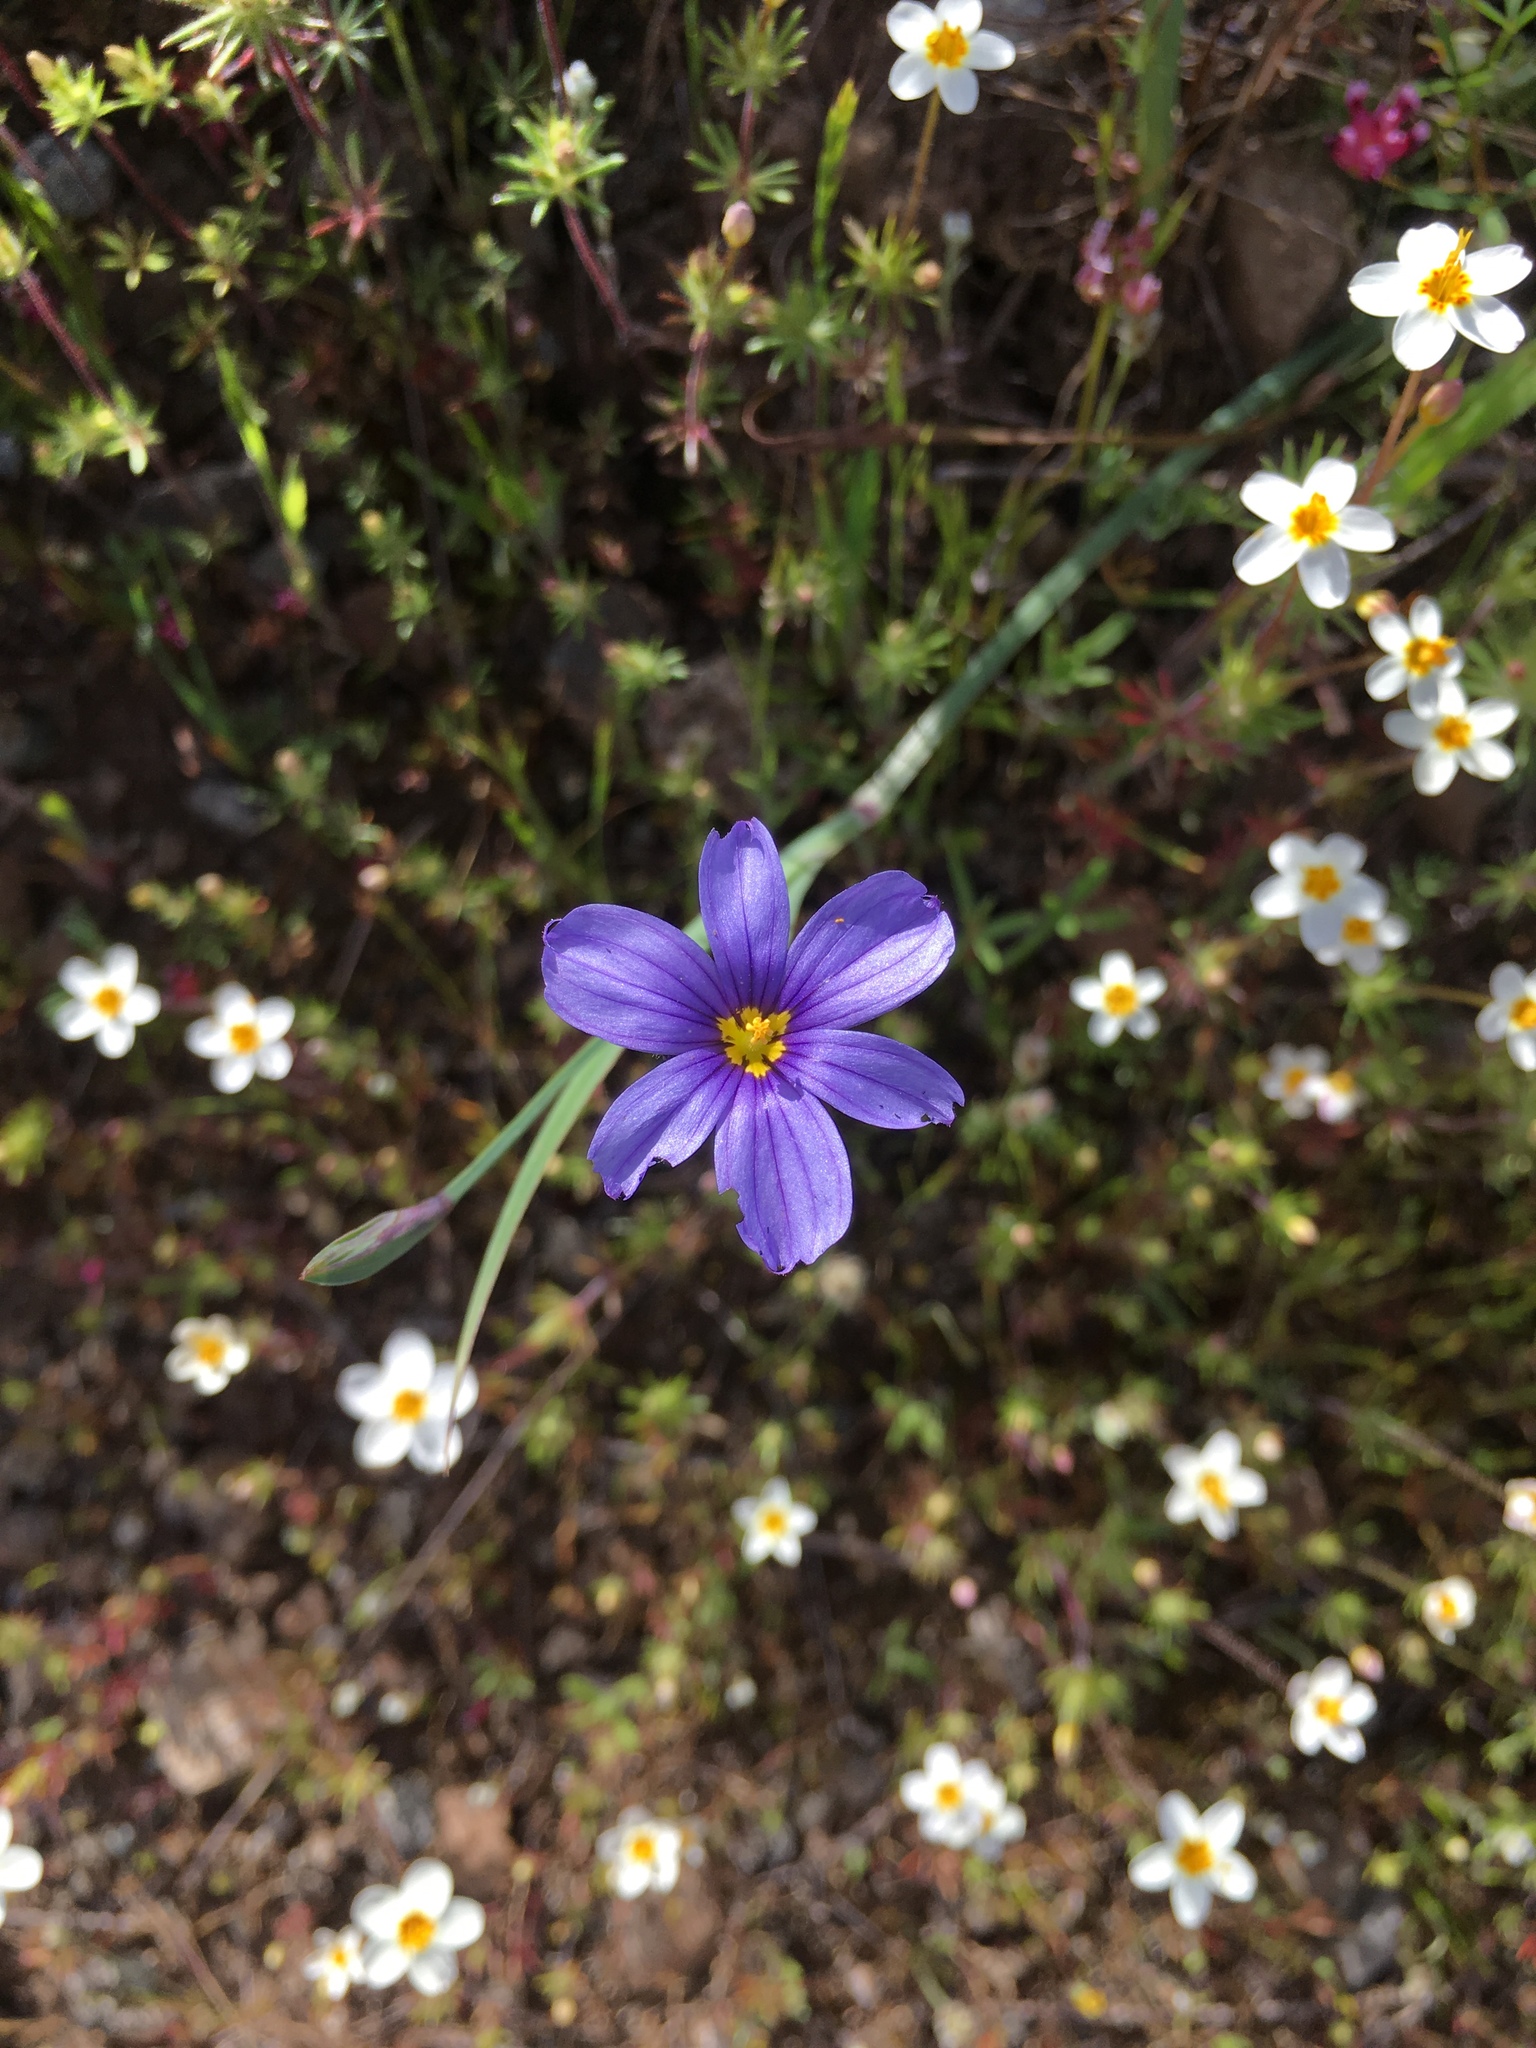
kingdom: Plantae
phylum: Tracheophyta
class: Liliopsida
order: Asparagales
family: Iridaceae
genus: Sisyrinchium
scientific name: Sisyrinchium bellum
